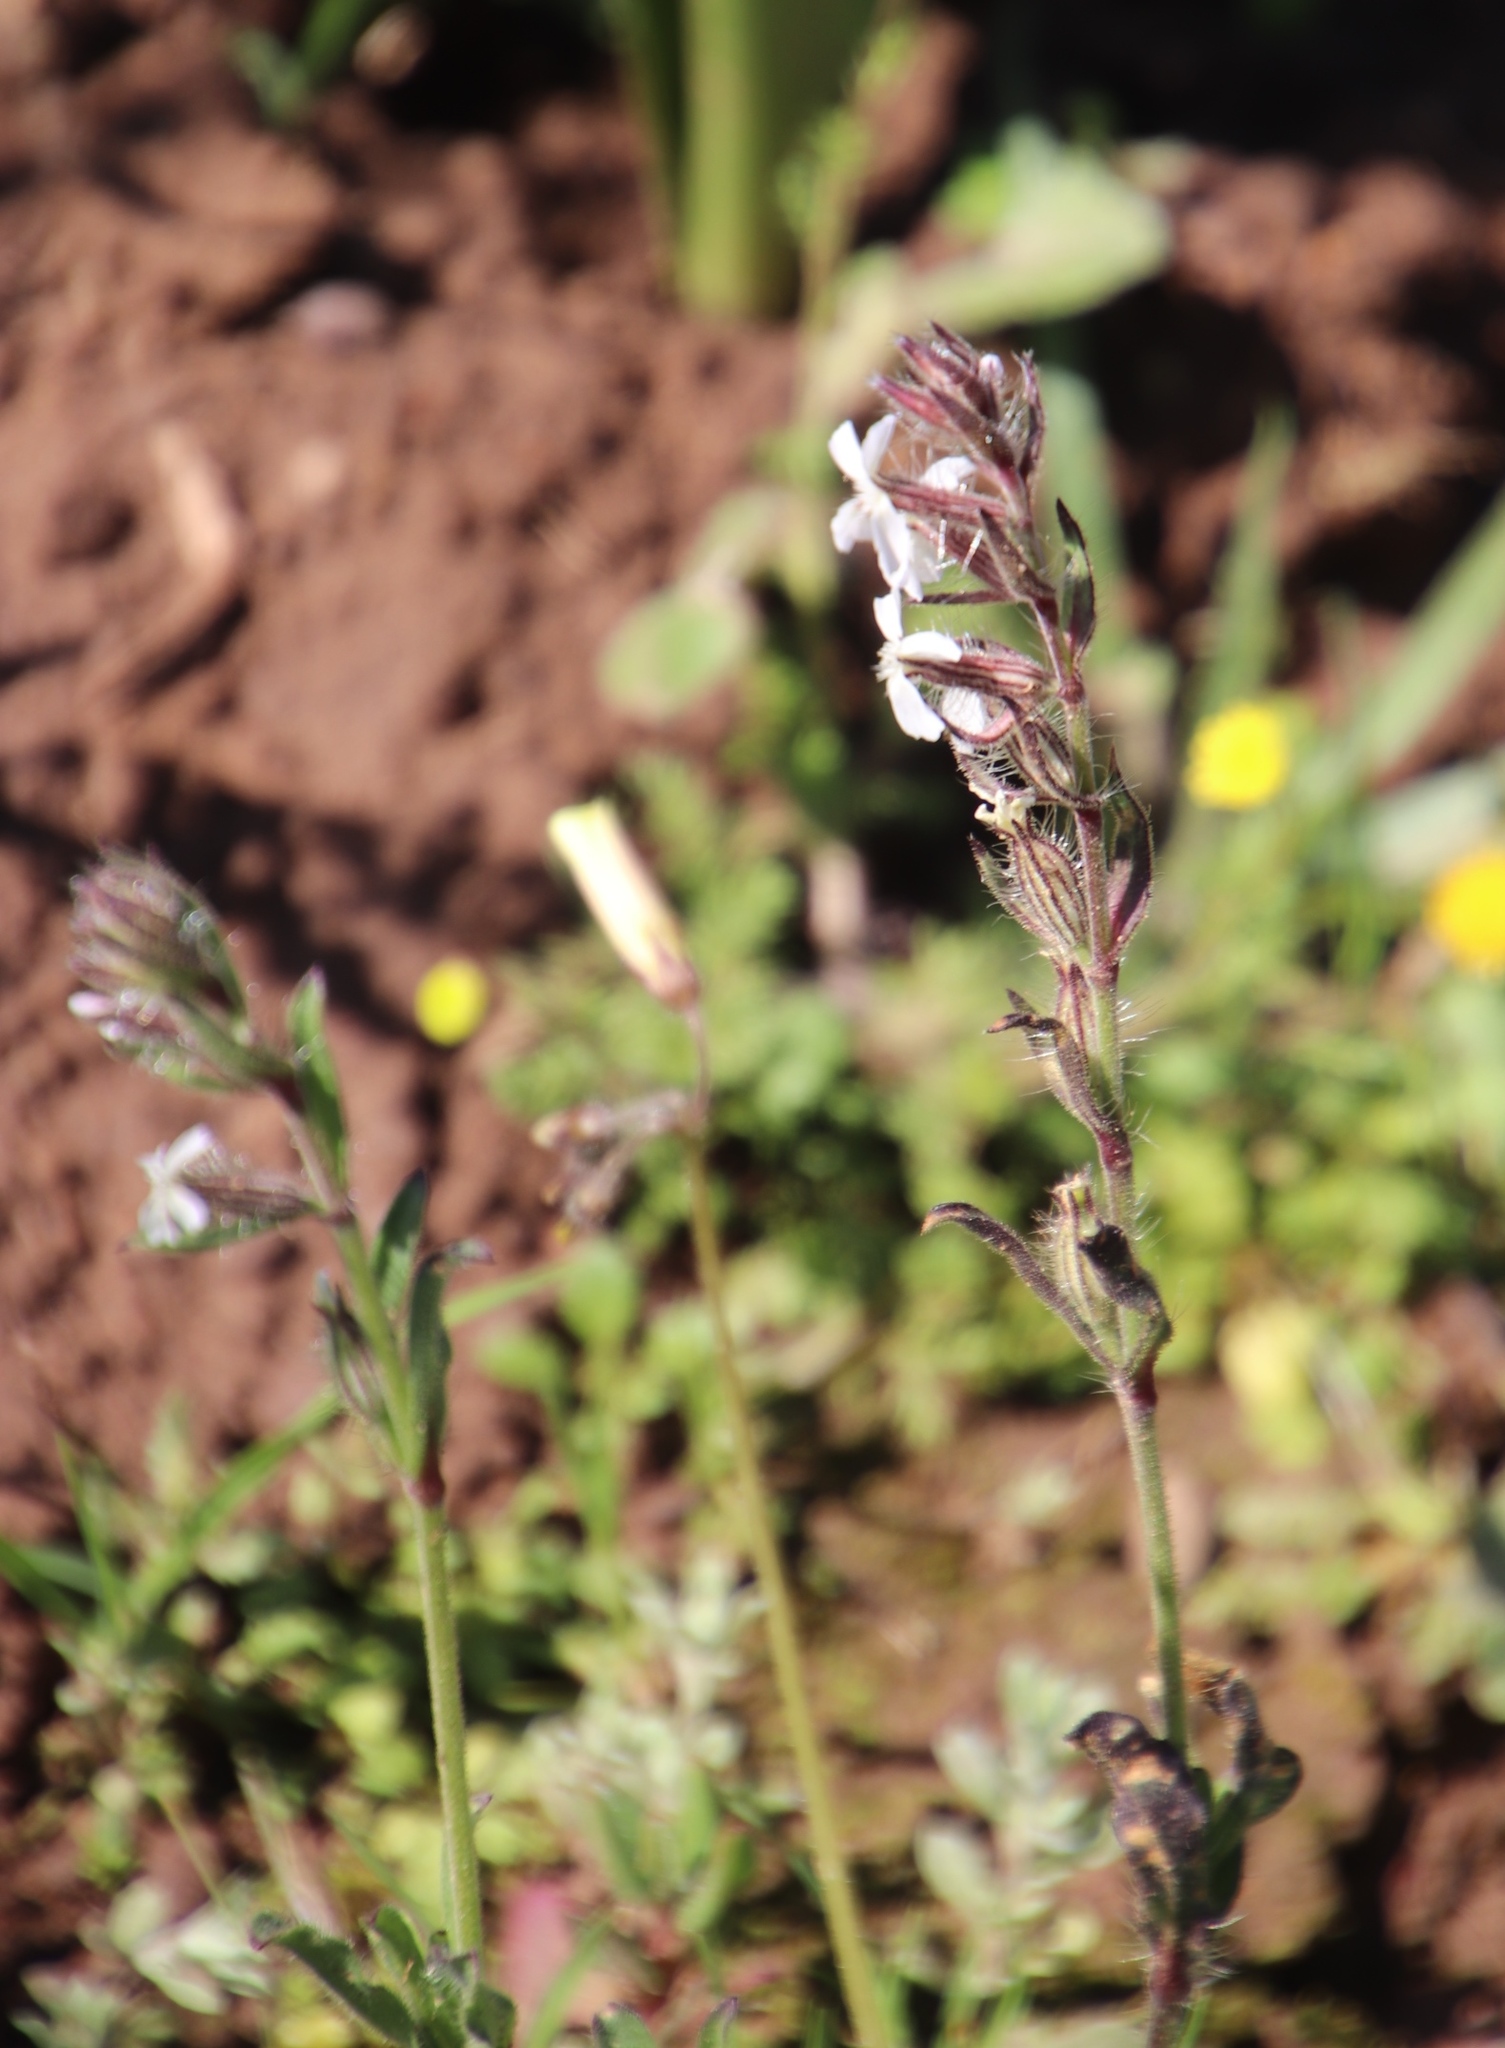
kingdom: Plantae
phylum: Tracheophyta
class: Magnoliopsida
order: Caryophyllales
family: Caryophyllaceae
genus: Silene
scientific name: Silene gallica
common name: Small-flowered catchfly
